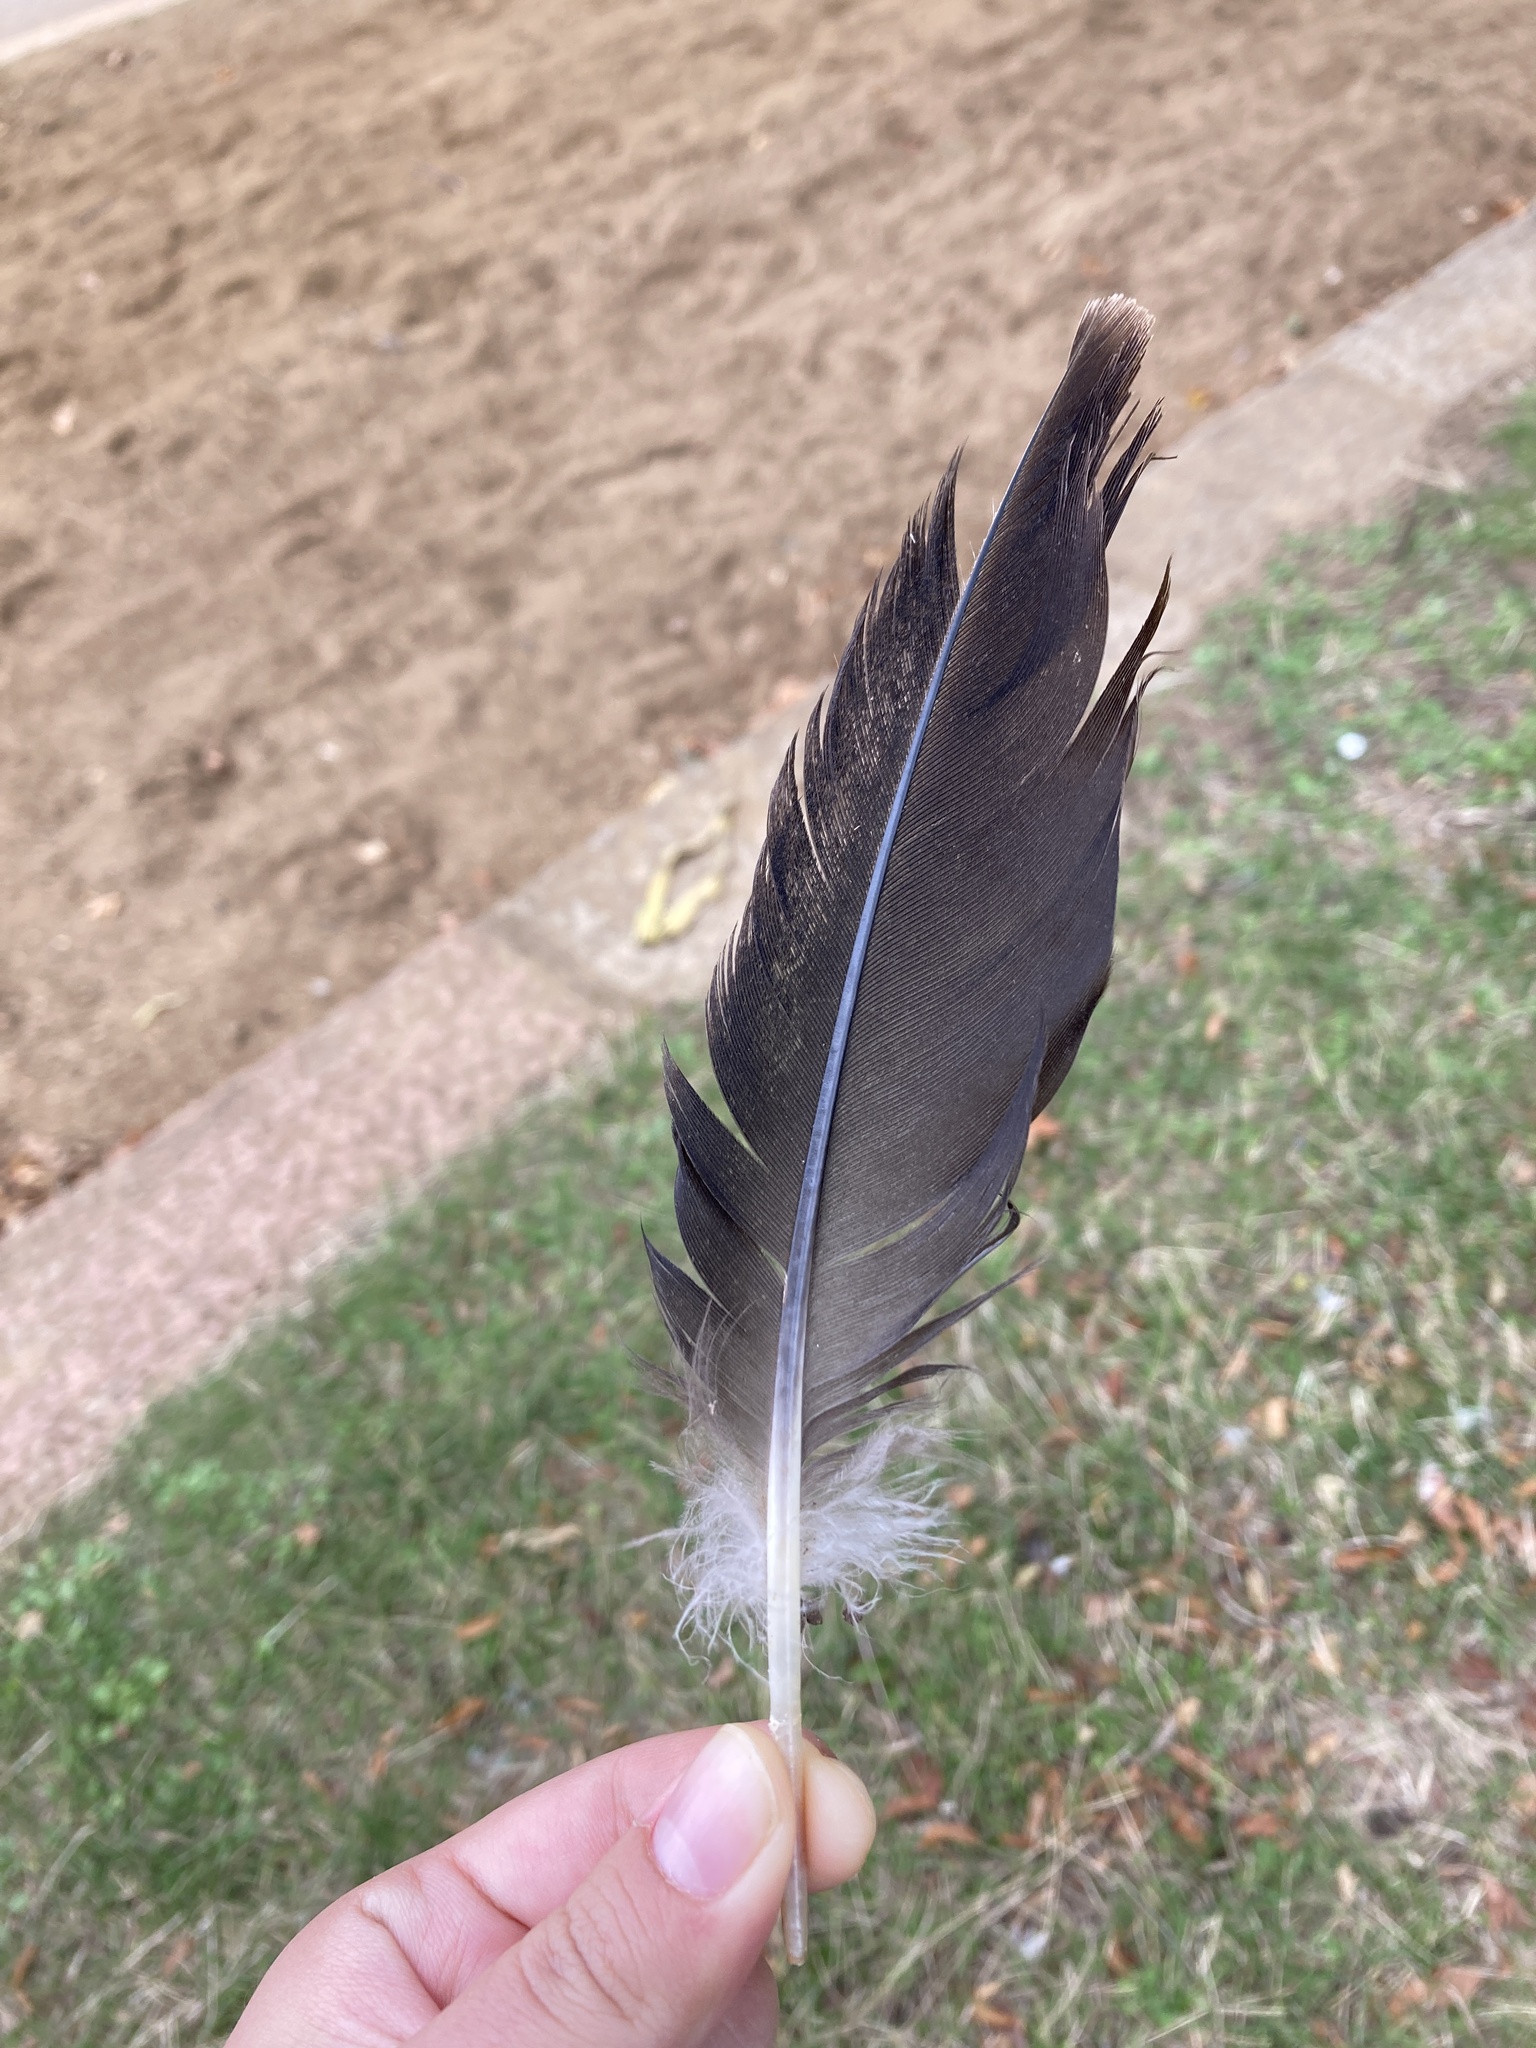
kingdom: Animalia
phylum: Chordata
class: Aves
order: Anseriformes
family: Anatidae
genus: Branta
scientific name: Branta canadensis
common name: Canada goose
